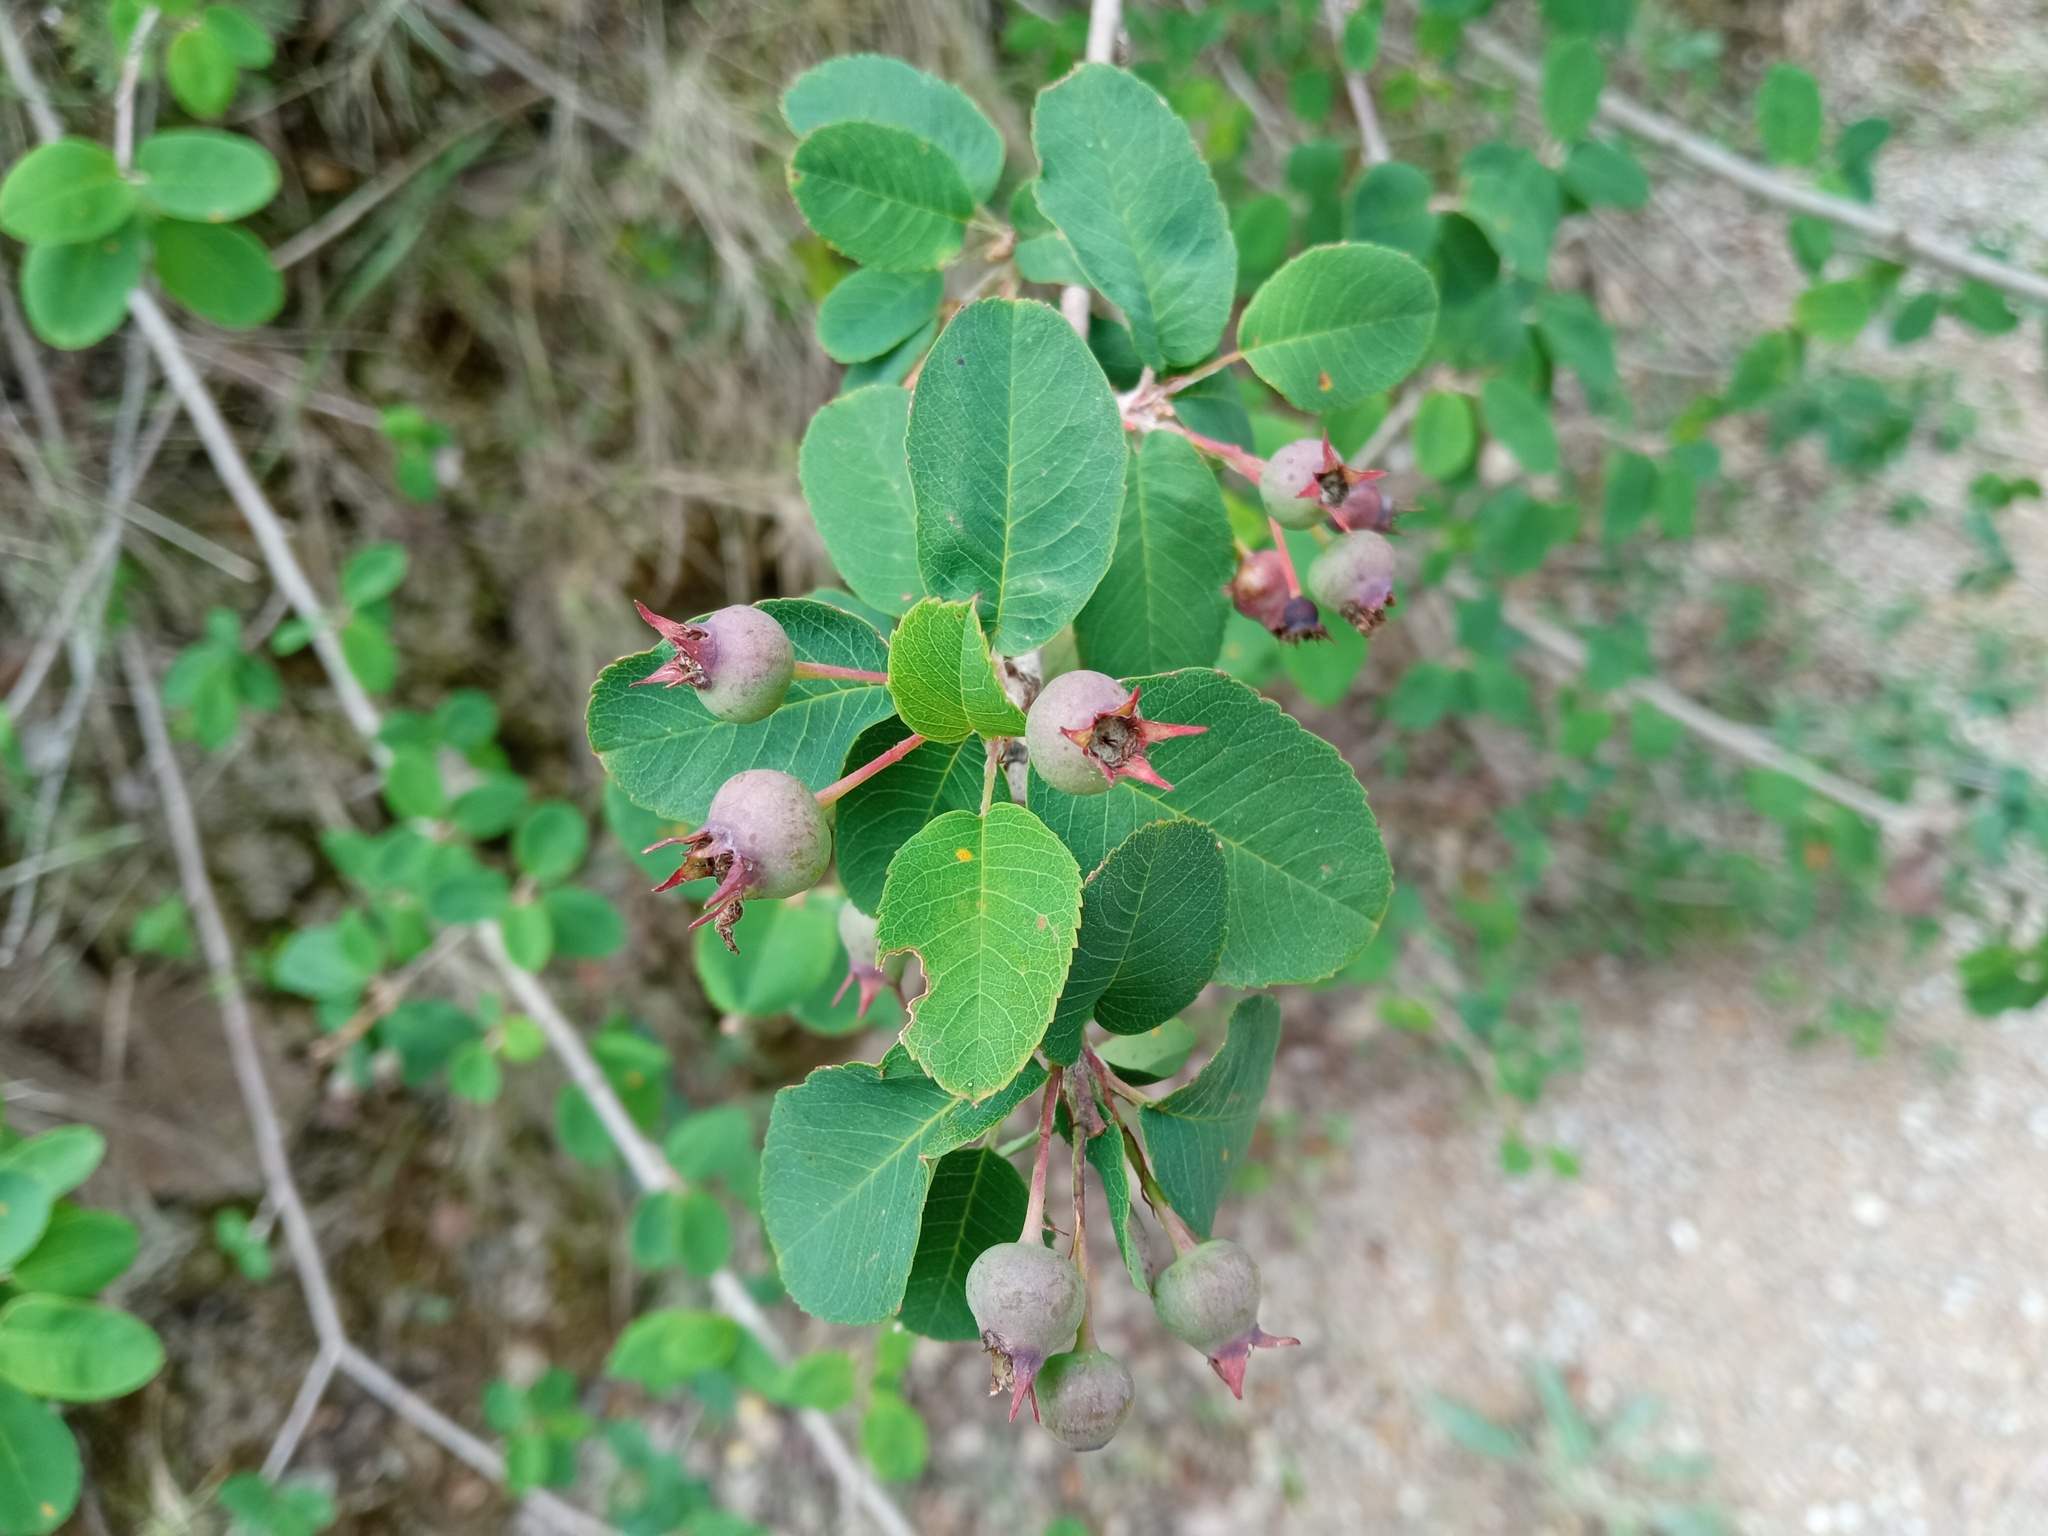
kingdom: Plantae
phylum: Tracheophyta
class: Magnoliopsida
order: Rosales
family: Rosaceae
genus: Amelanchier
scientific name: Amelanchier ovalis
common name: Serviceberry
